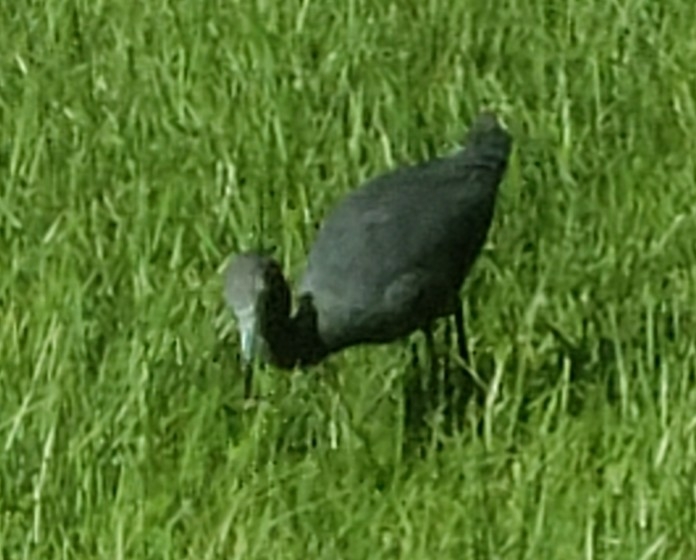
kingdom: Animalia
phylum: Chordata
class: Aves
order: Pelecaniformes
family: Ardeidae
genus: Egretta
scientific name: Egretta caerulea
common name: Little blue heron
